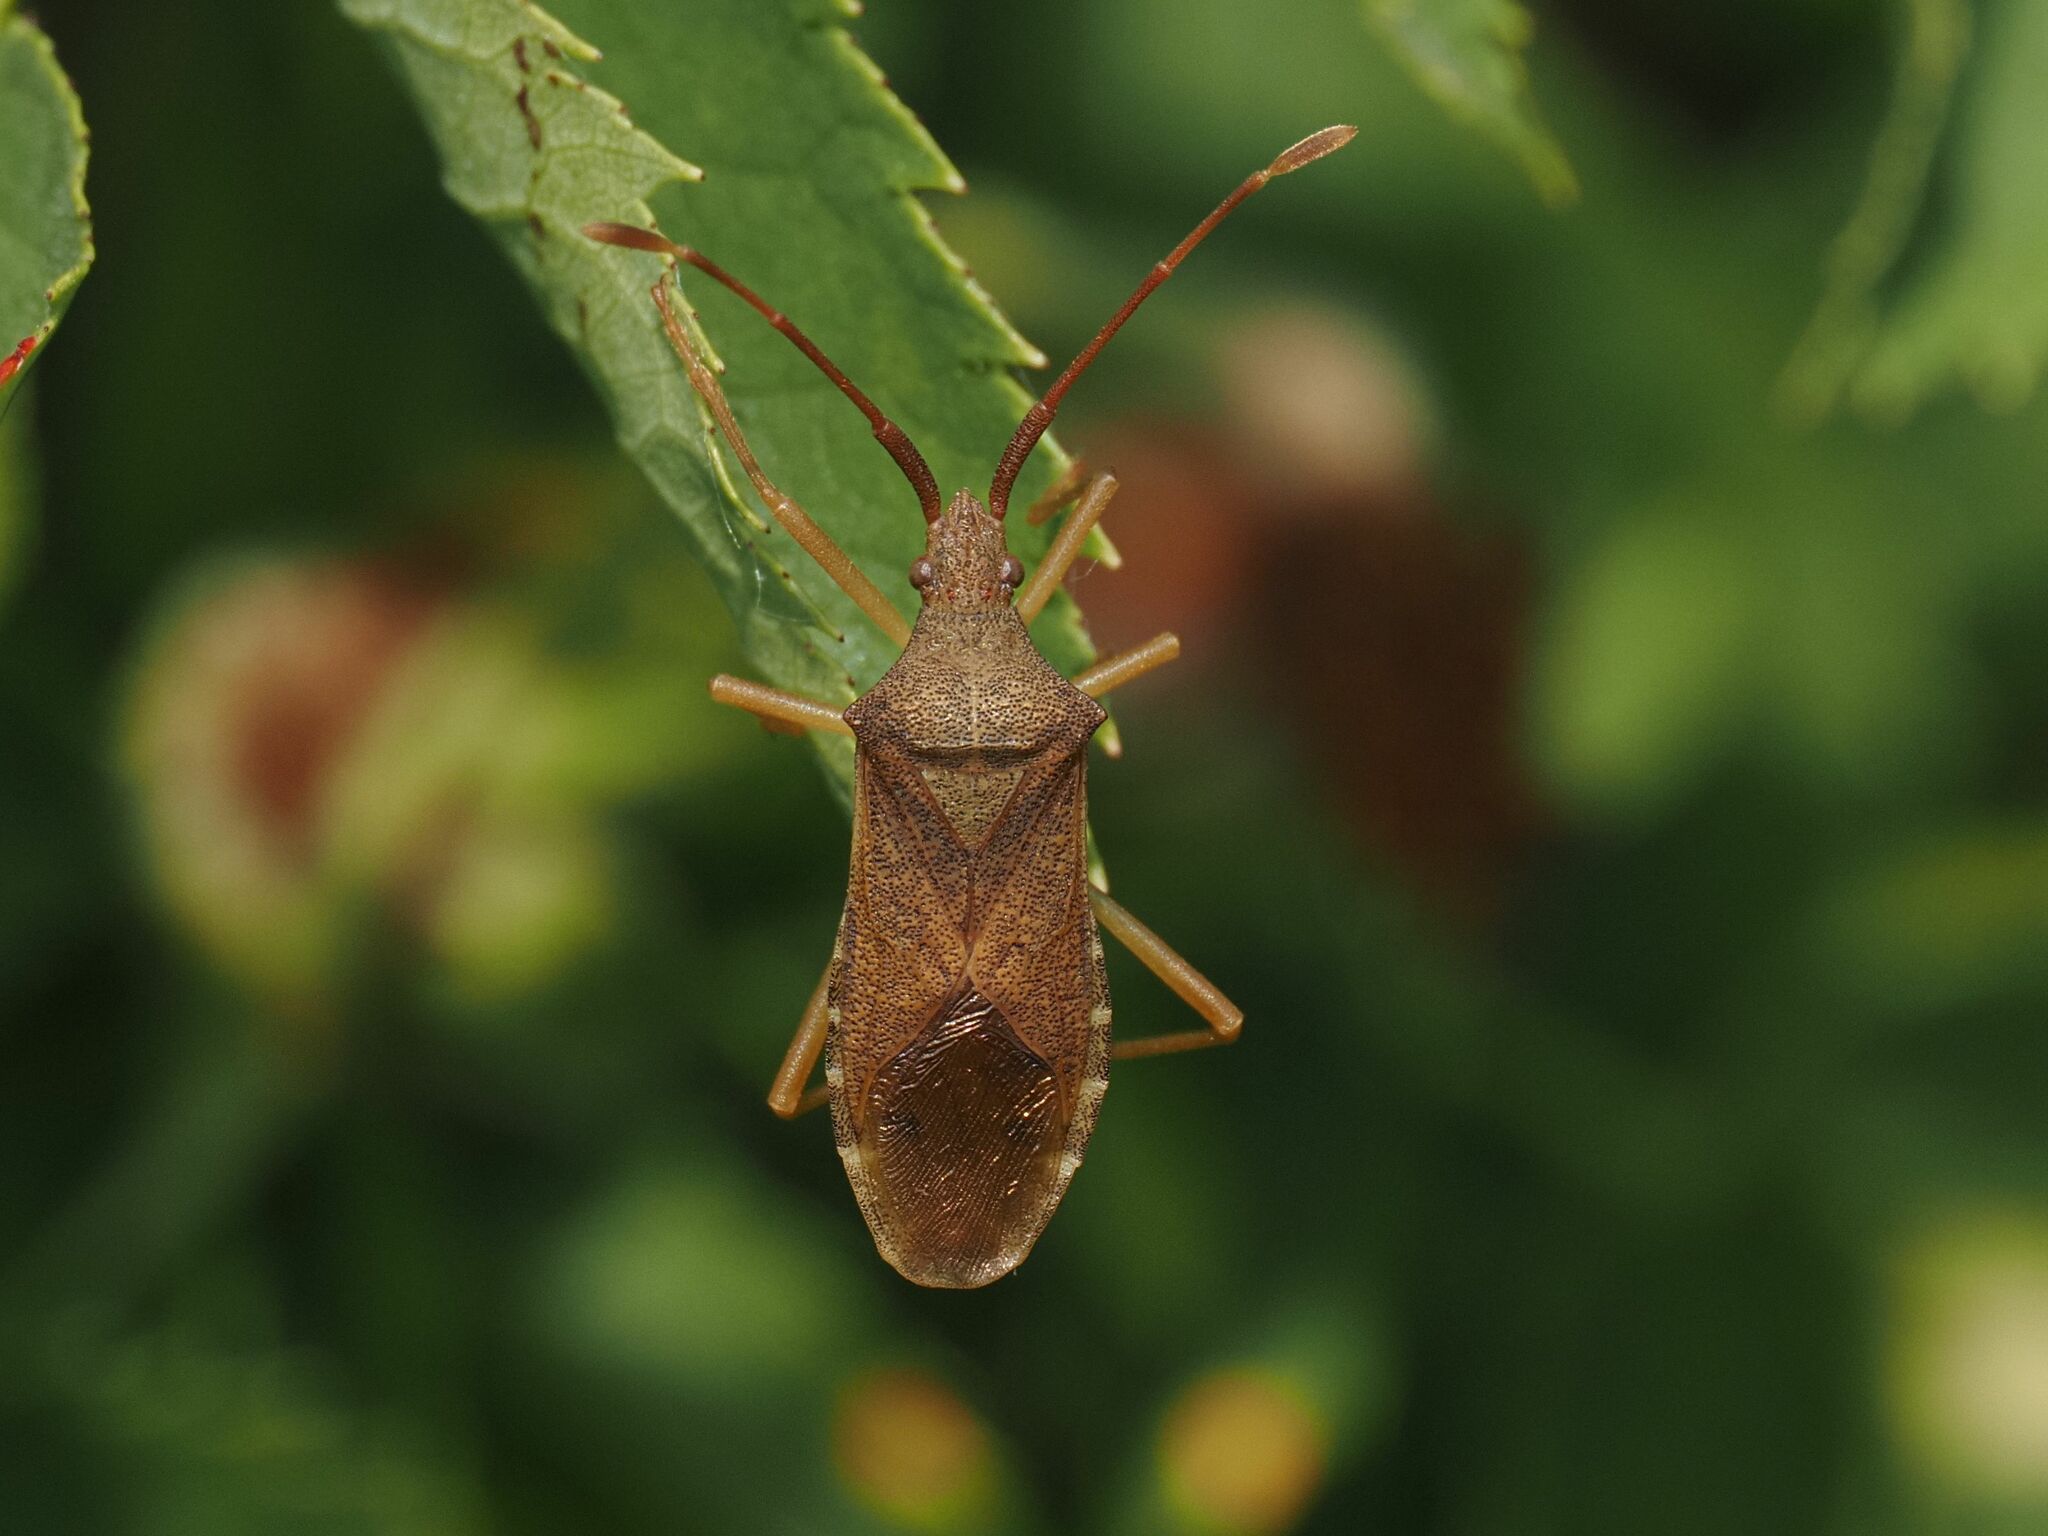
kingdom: Animalia
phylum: Arthropoda
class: Insecta
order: Hemiptera
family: Coreidae
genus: Gonocerus
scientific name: Gonocerus acuteangulatus
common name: Box bug
